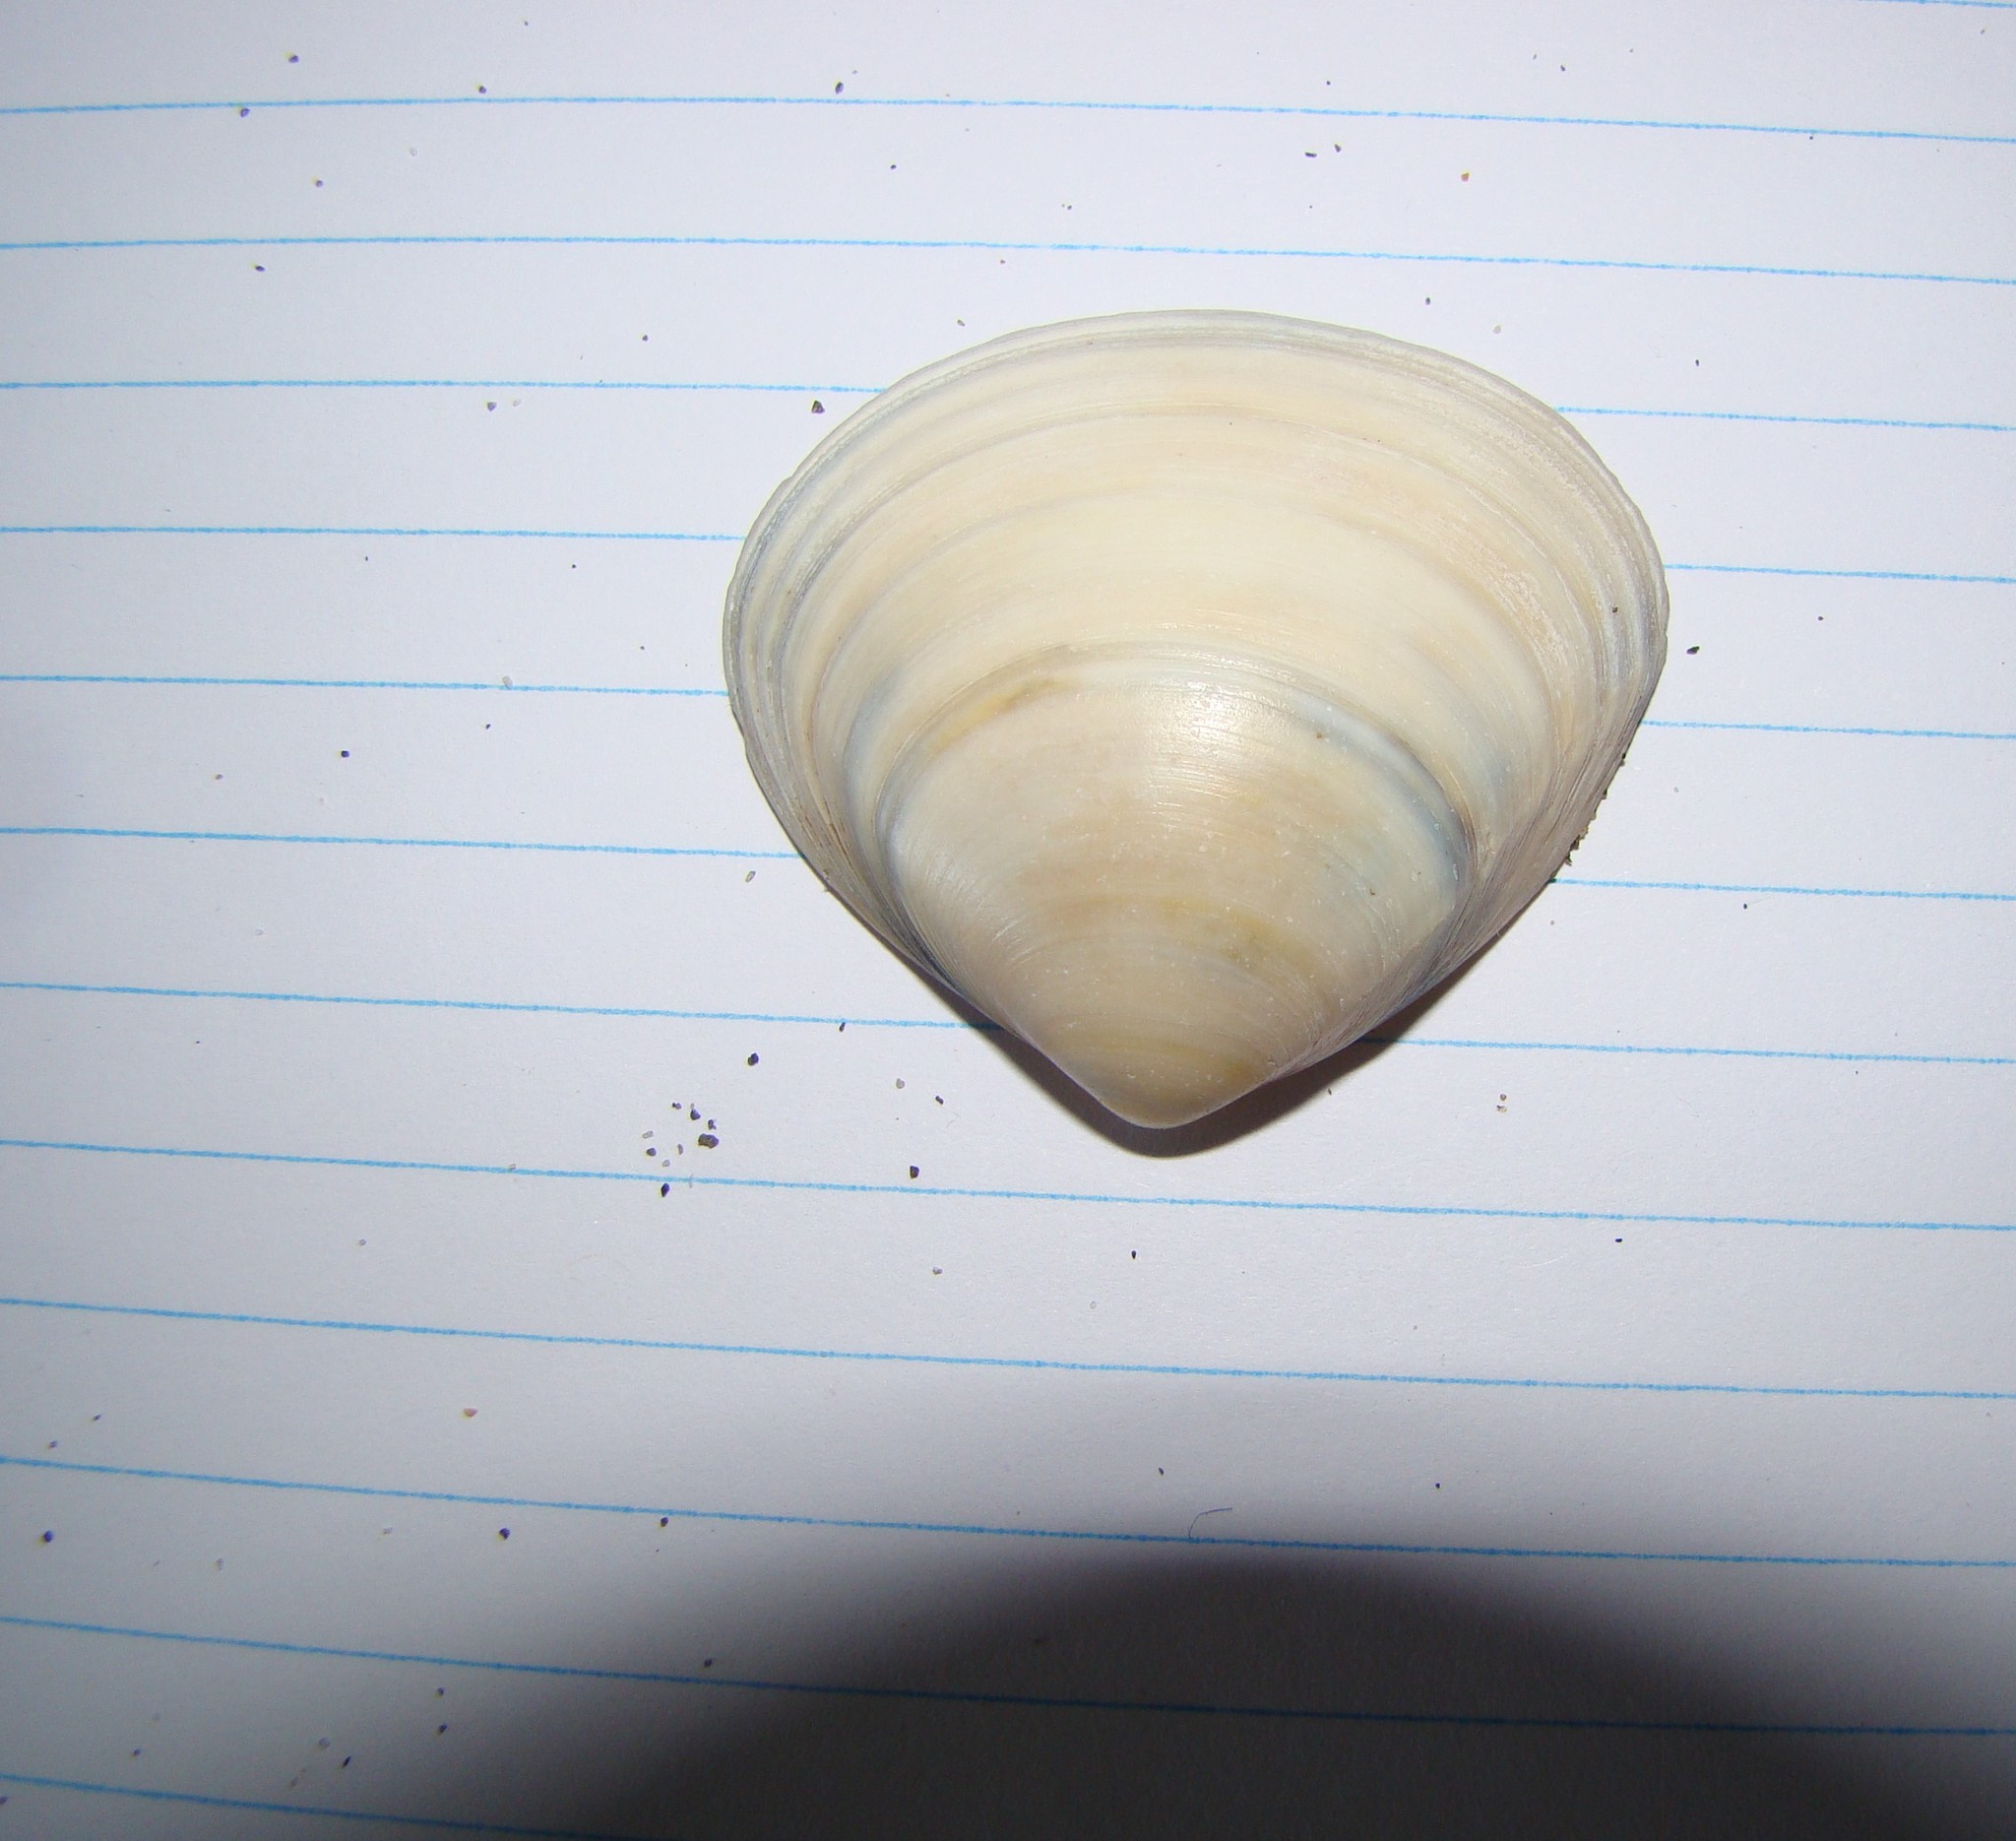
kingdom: Animalia
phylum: Mollusca
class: Bivalvia
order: Venerida
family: Mactridae
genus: Spisula
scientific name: Spisula murchisoni
